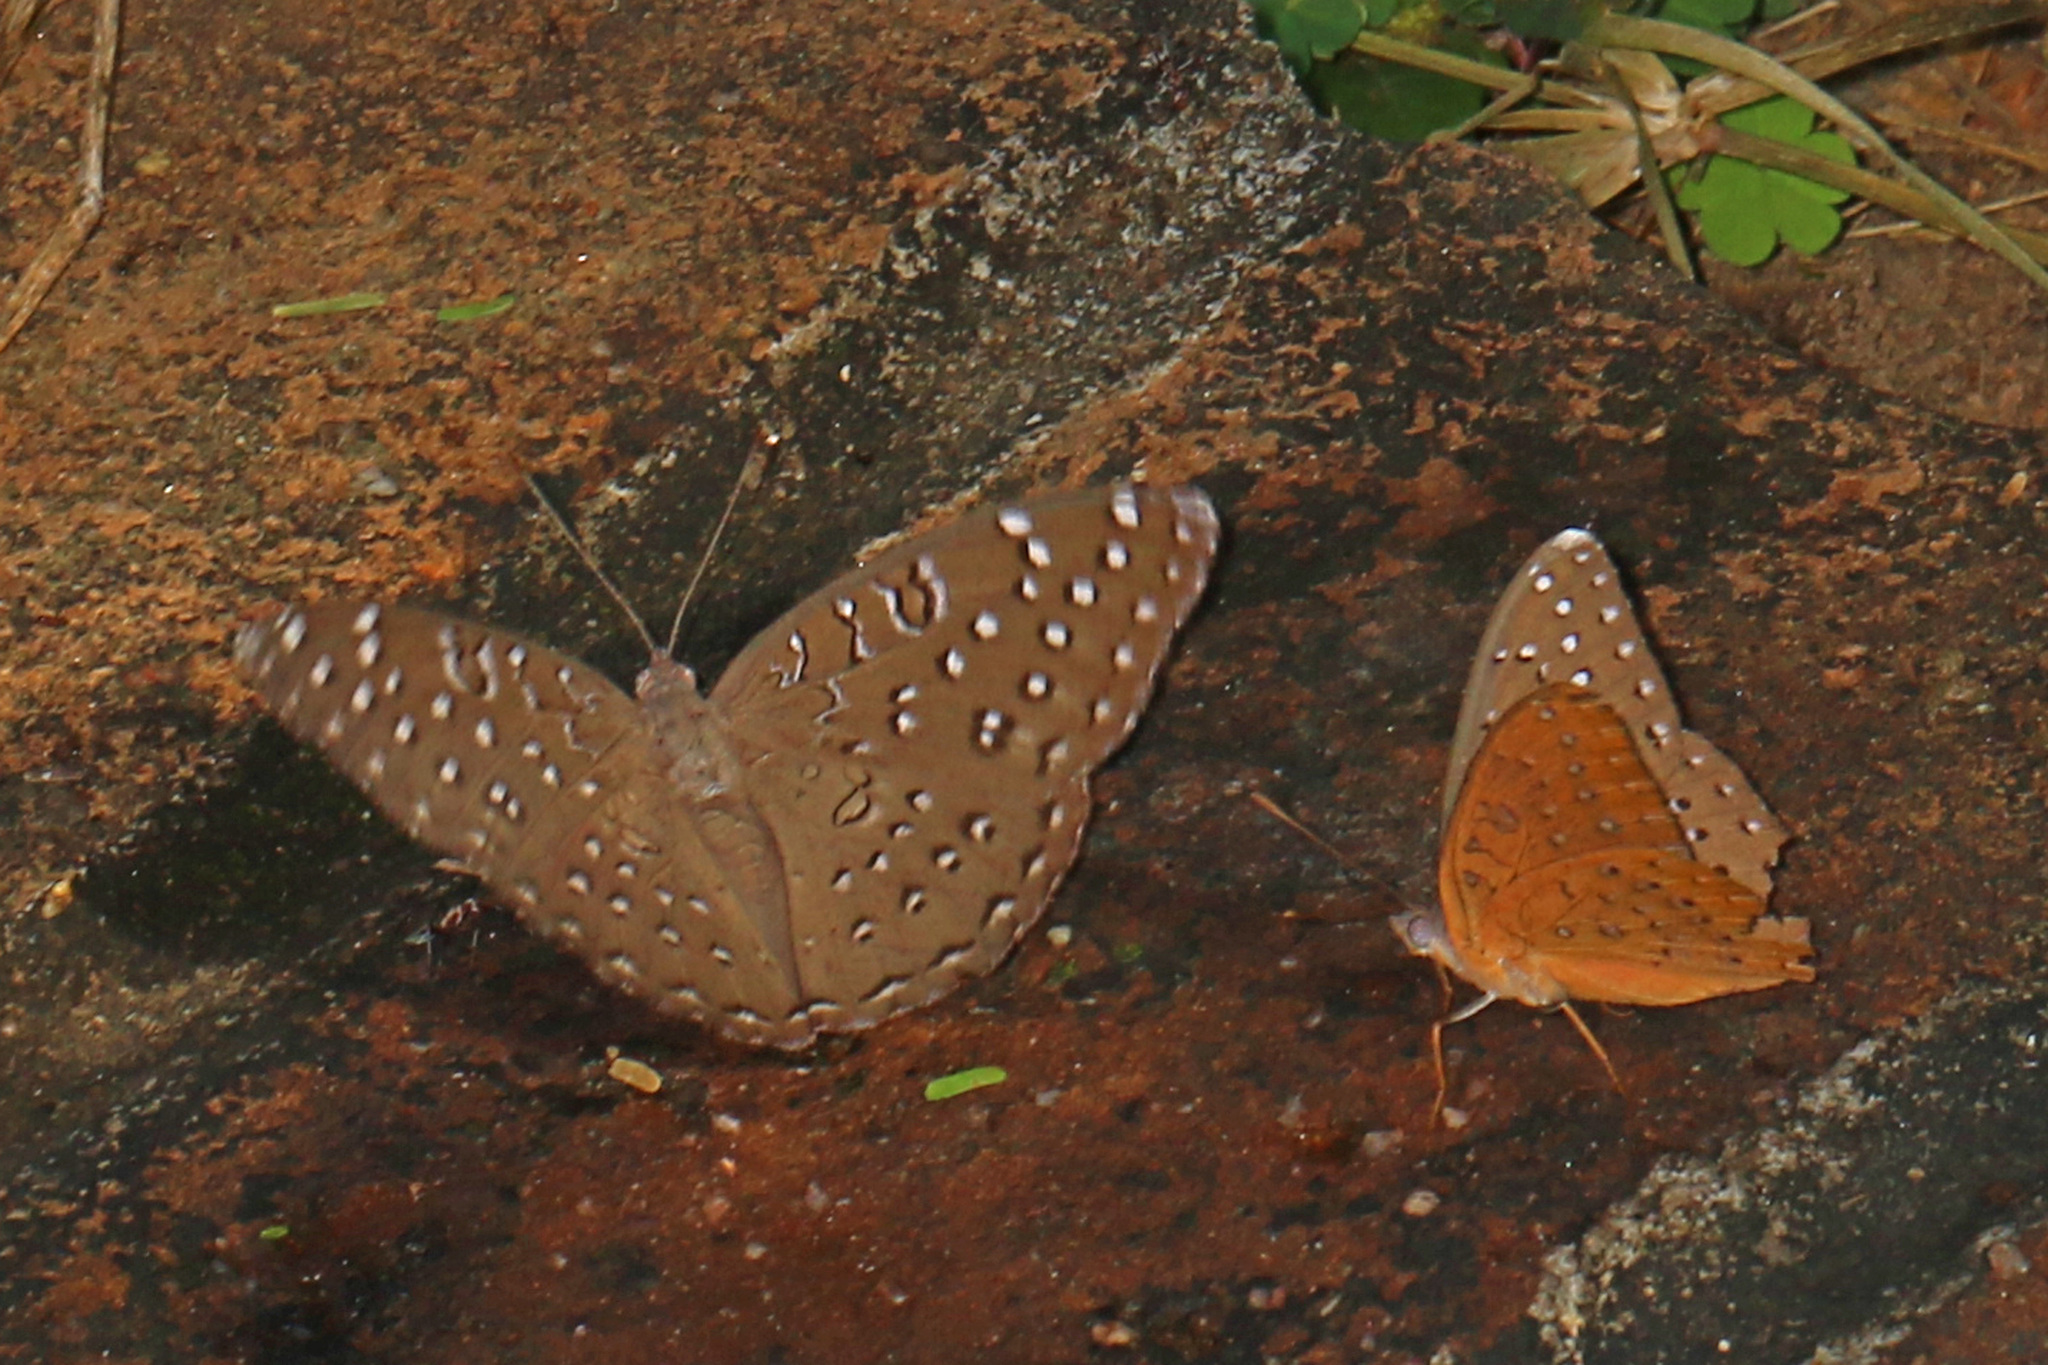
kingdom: Animalia
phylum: Arthropoda
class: Insecta
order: Lepidoptera
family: Nymphalidae
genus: Hamanumida
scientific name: Hamanumida daedalus
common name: Guinea-fowl butterfly
